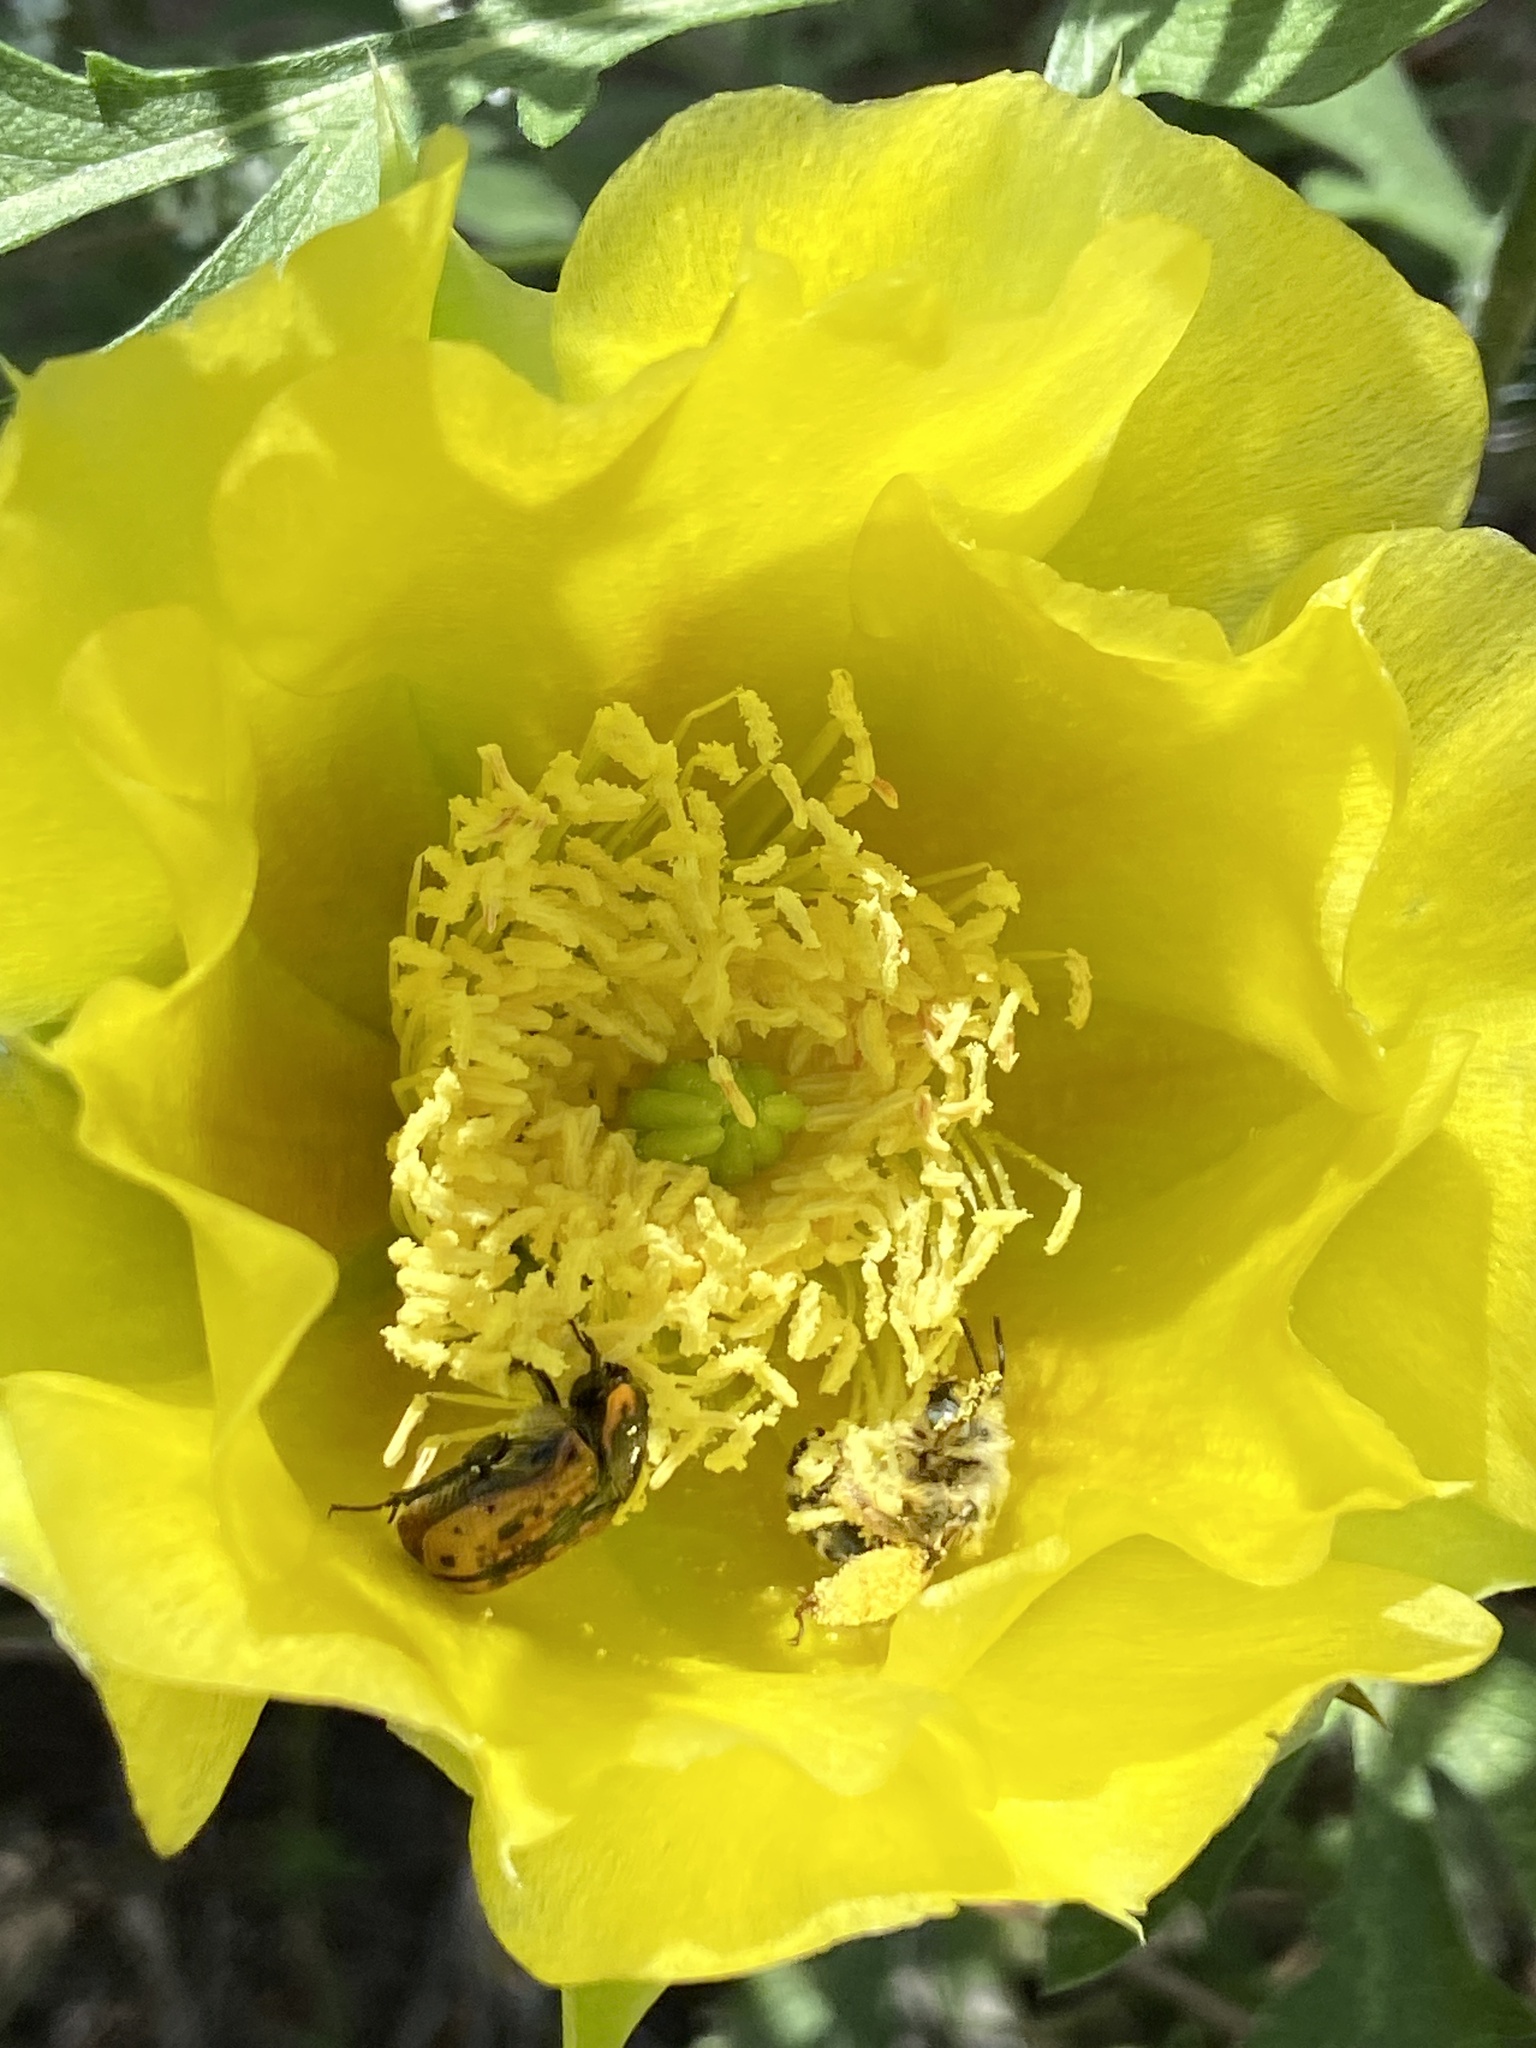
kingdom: Animalia
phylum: Arthropoda
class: Insecta
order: Coleoptera
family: Scarabaeidae
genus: Euphoria
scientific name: Euphoria kernii
